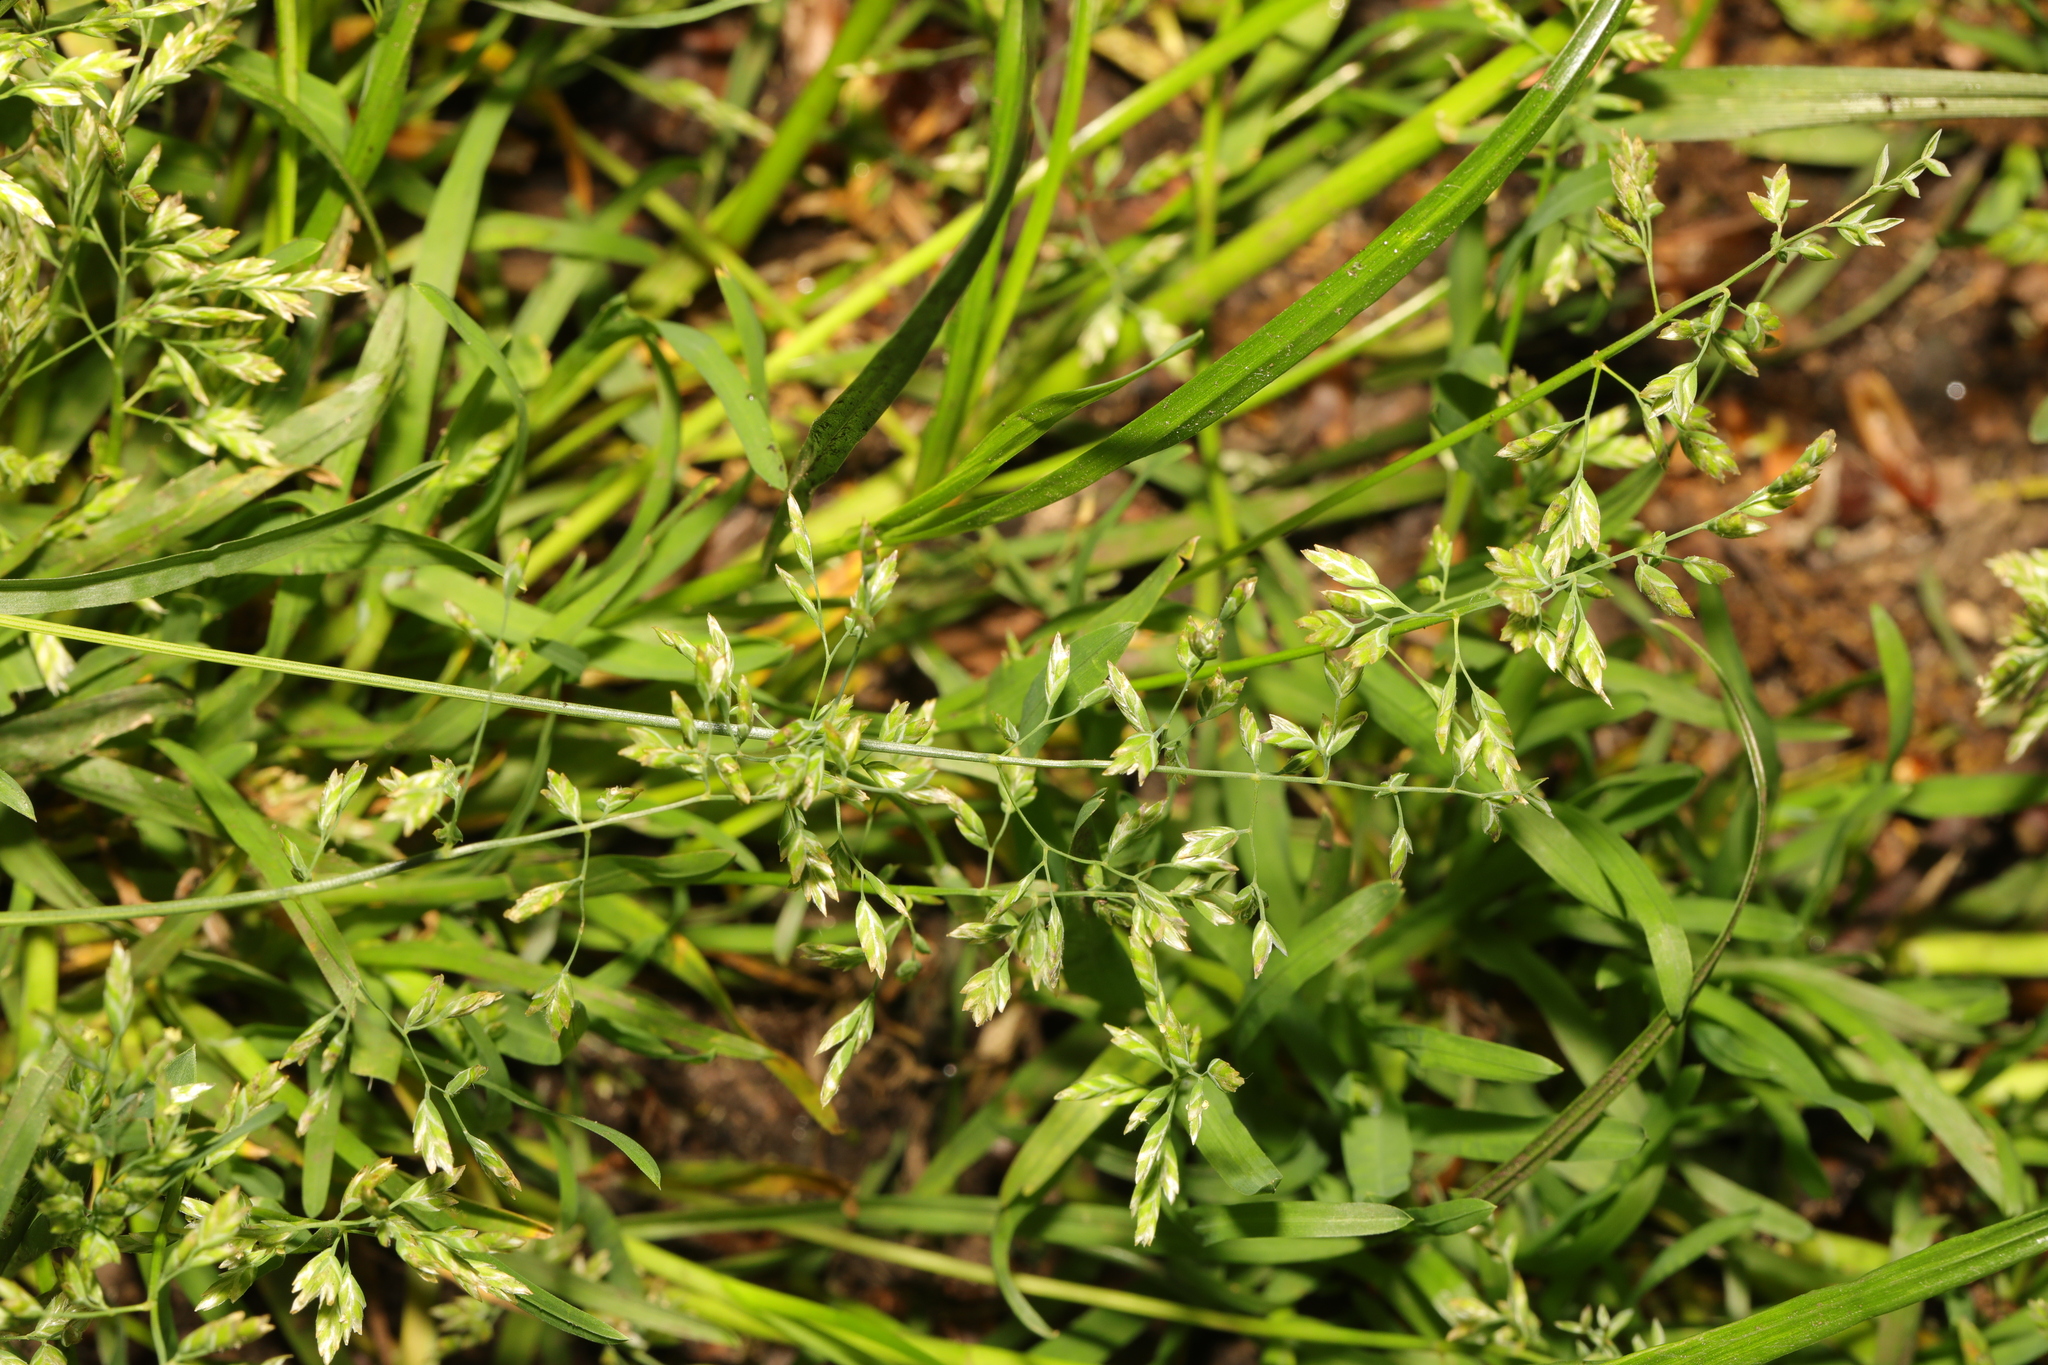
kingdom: Plantae
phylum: Tracheophyta
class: Liliopsida
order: Poales
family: Poaceae
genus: Poa
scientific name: Poa annua
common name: Annual bluegrass
